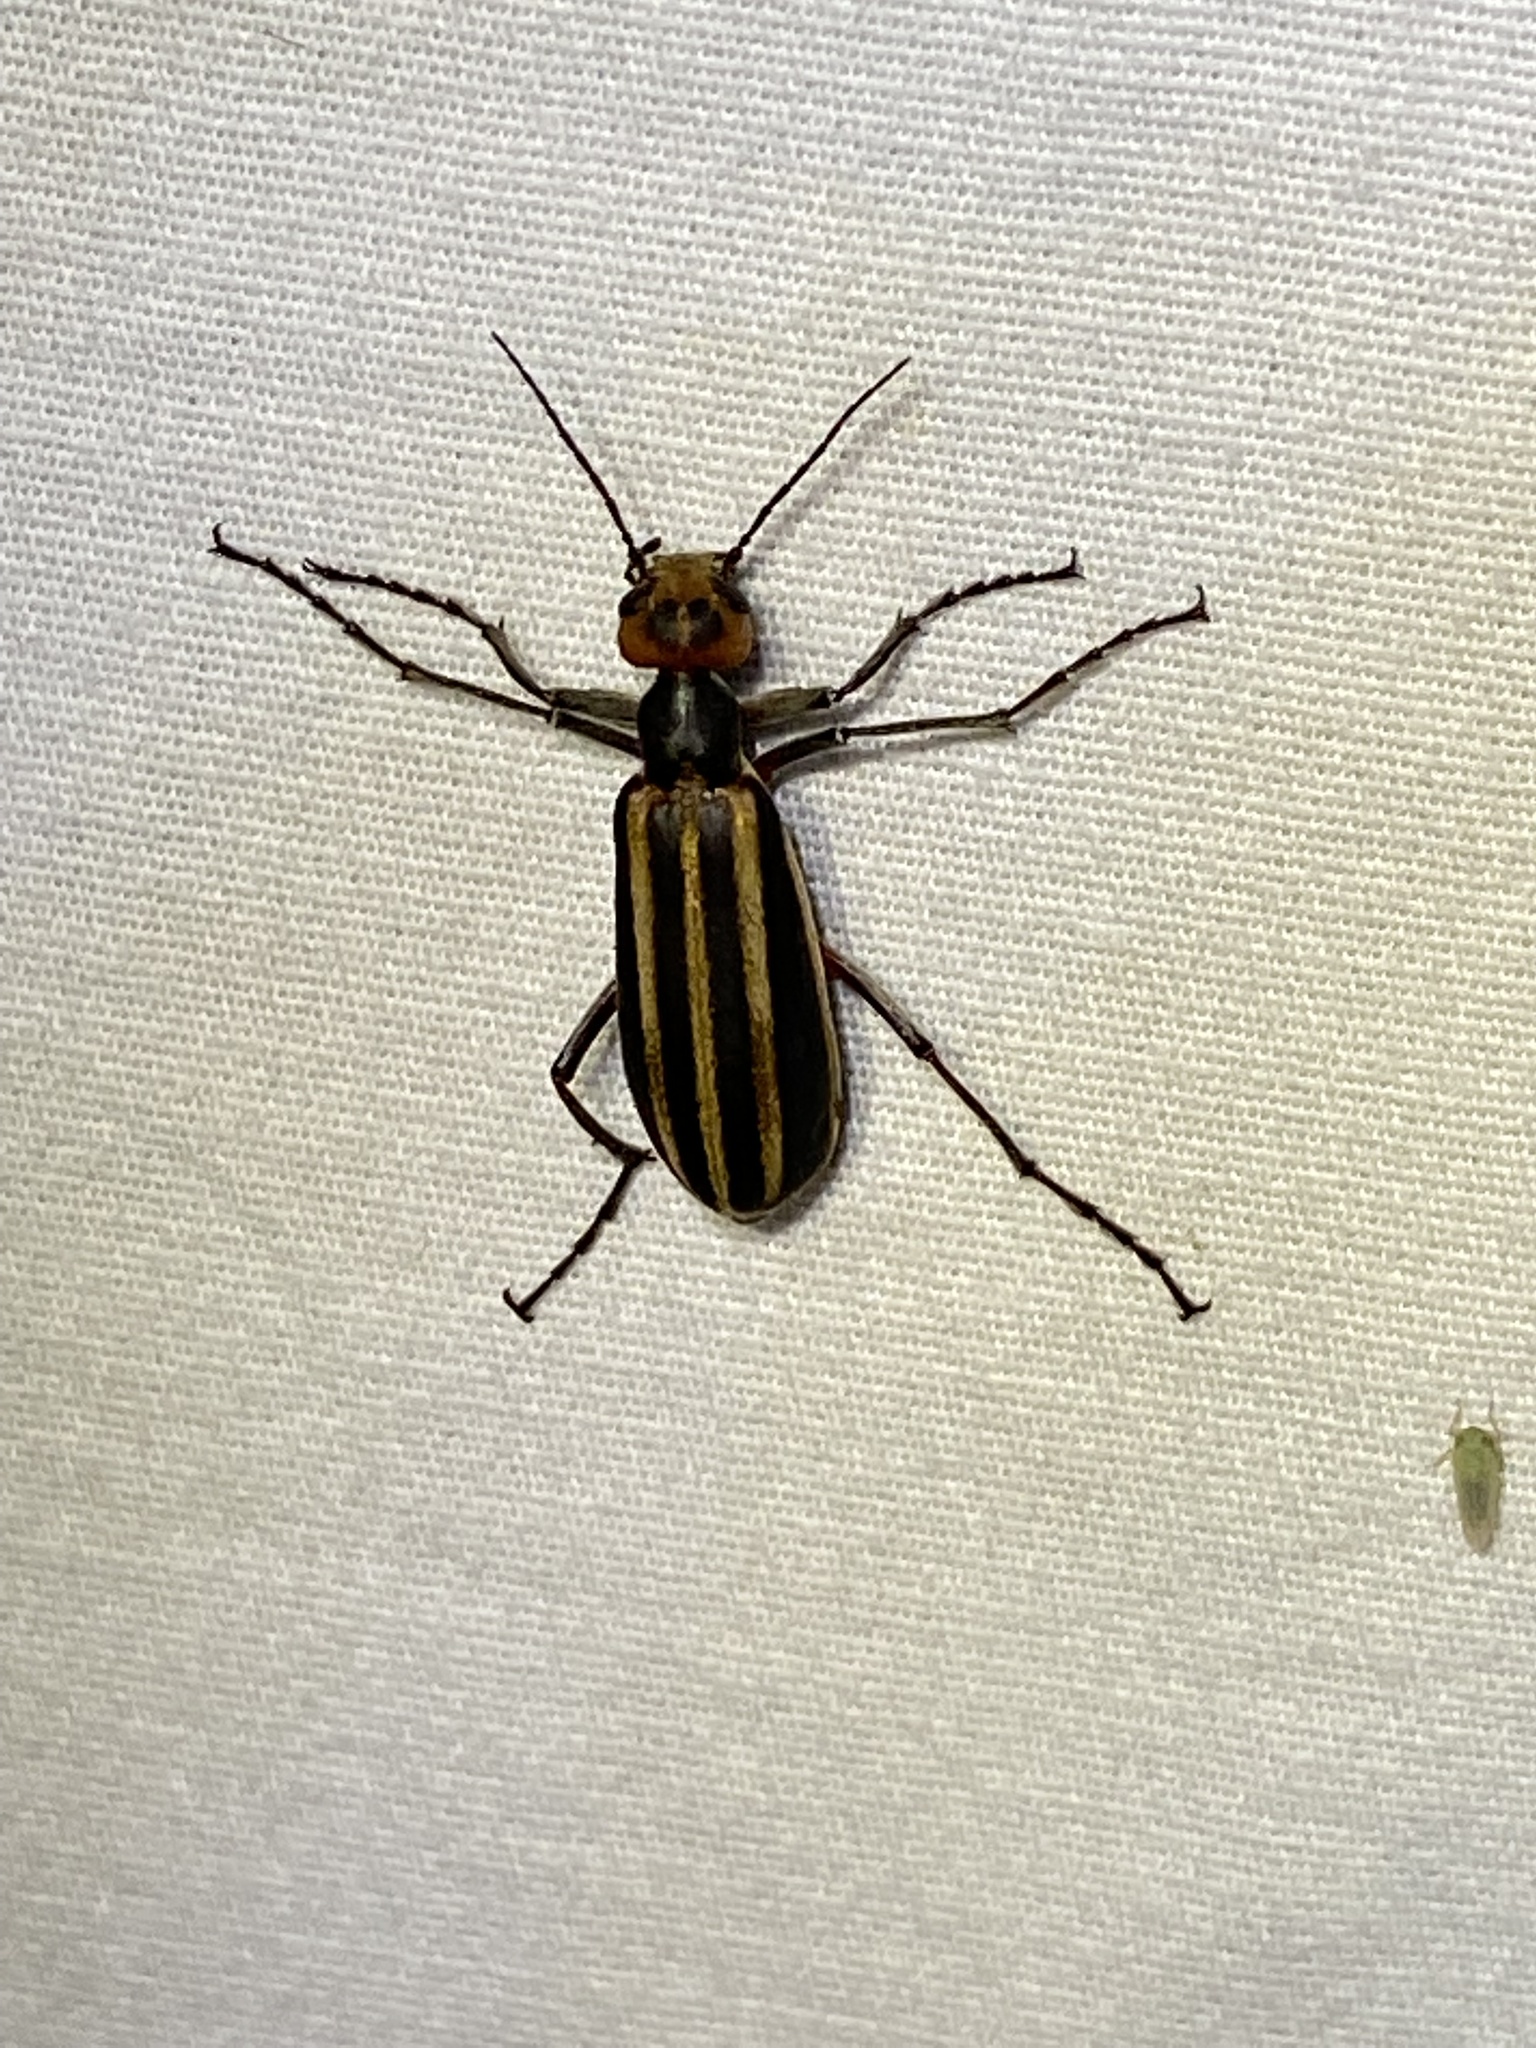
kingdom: Animalia
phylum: Arthropoda
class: Insecta
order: Coleoptera
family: Meloidae
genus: Epicauta
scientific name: Epicauta vittata
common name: Old-fashioned potato beetle
